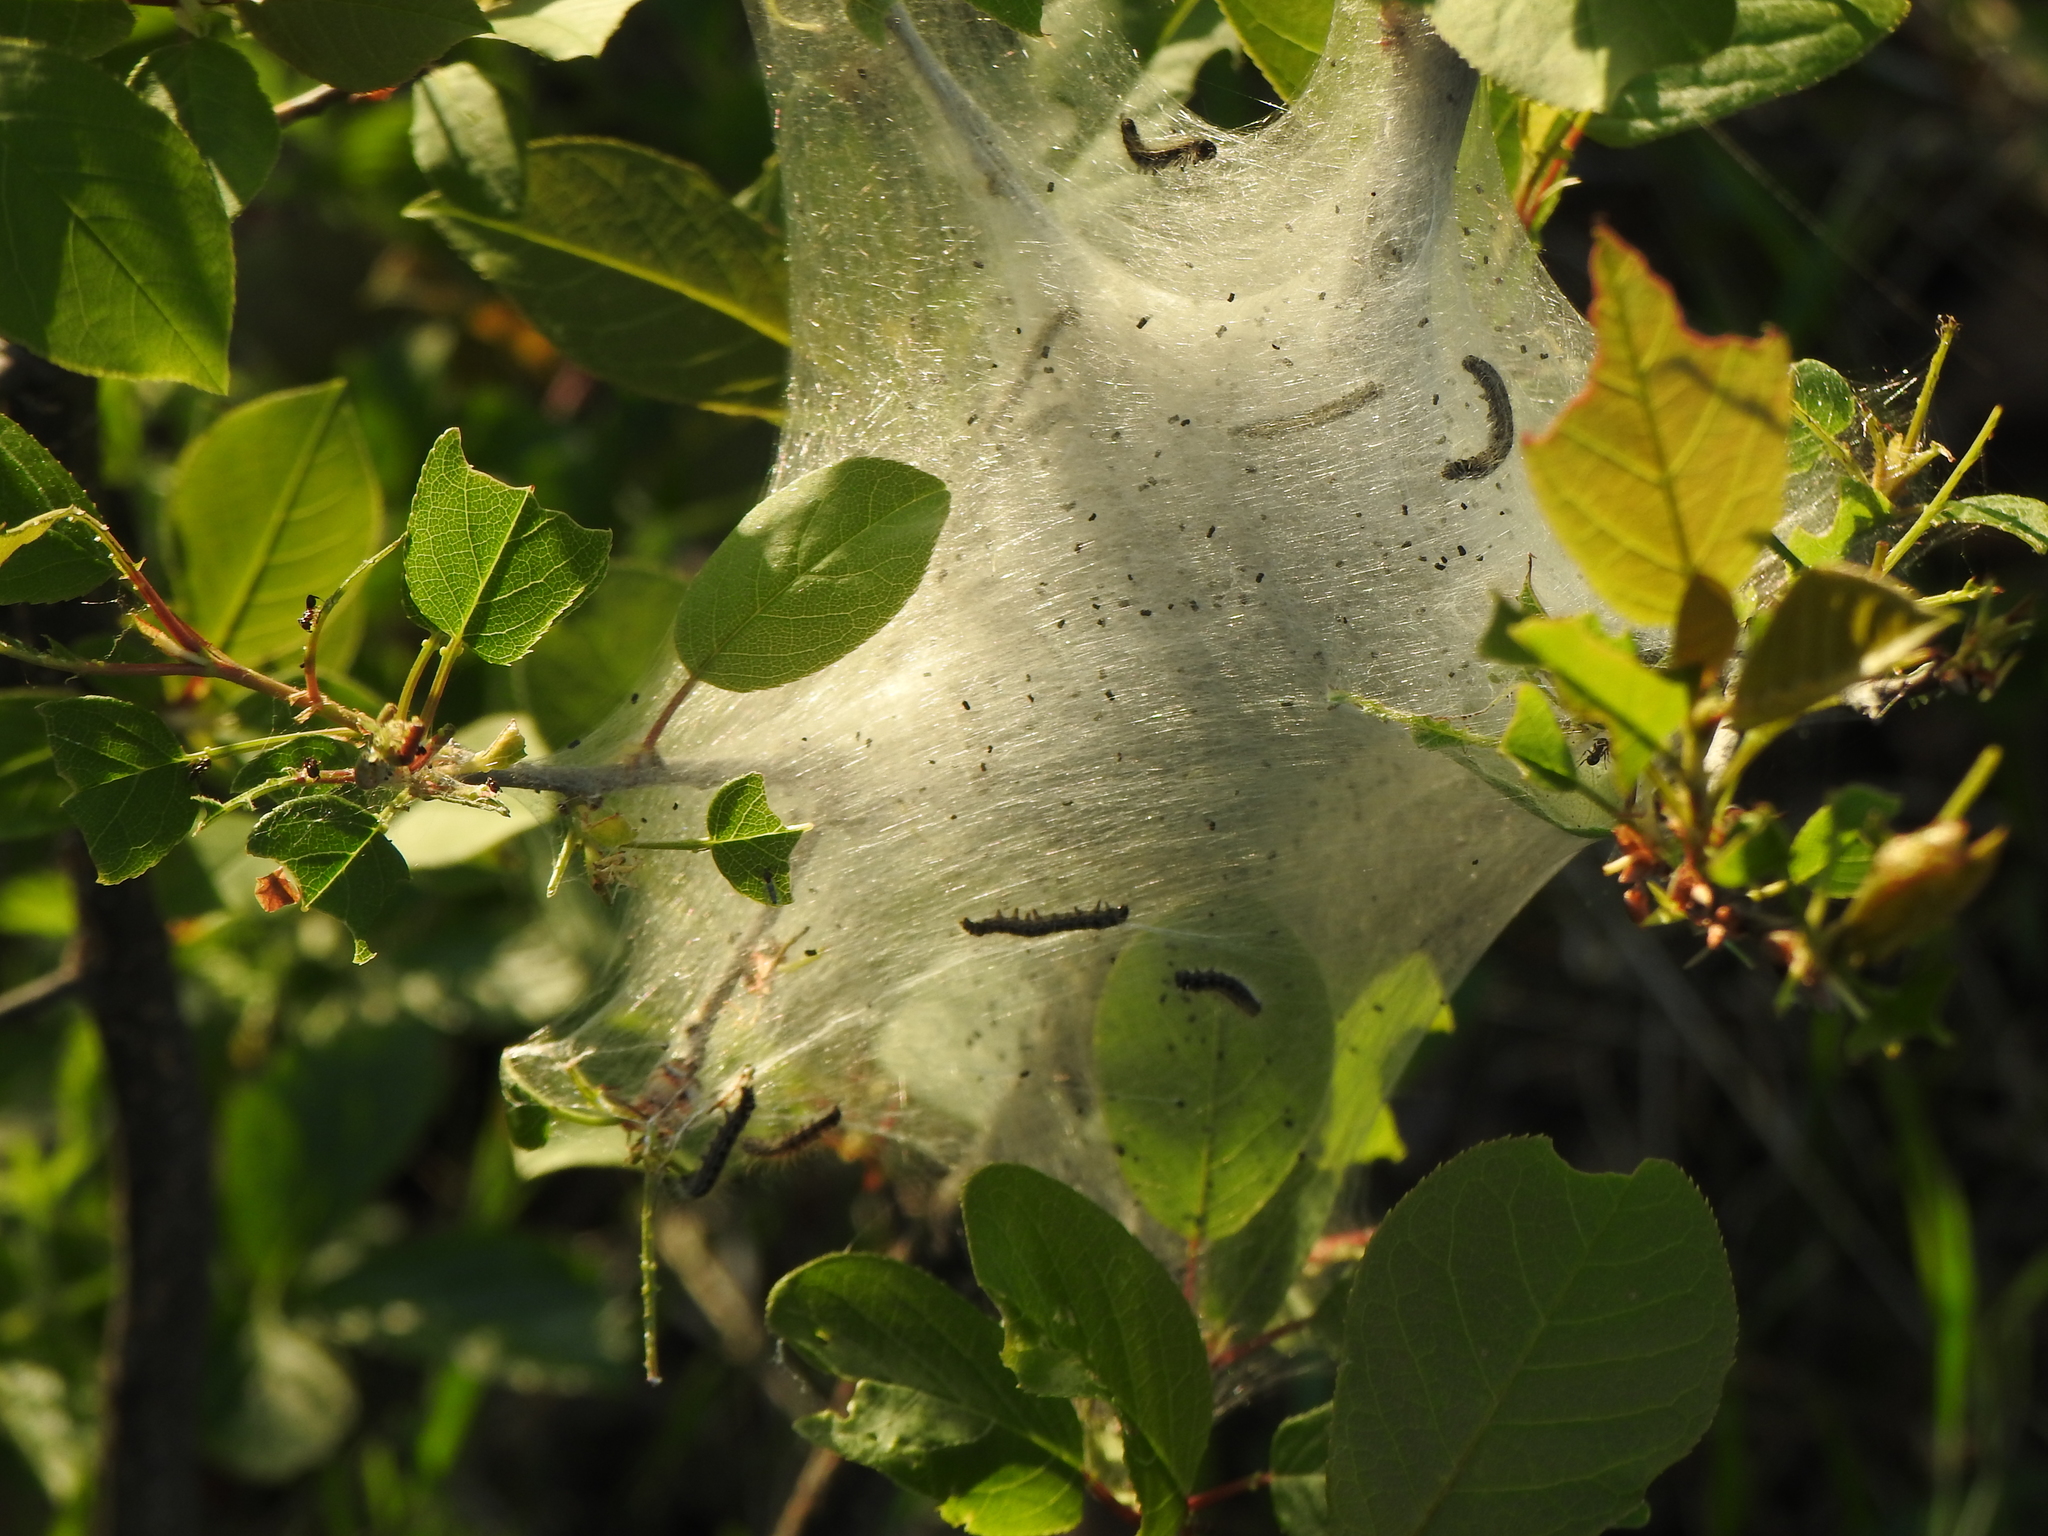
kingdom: Animalia
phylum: Arthropoda
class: Insecta
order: Lepidoptera
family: Lasiocampidae
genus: Malacosoma
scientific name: Malacosoma americana
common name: Eastern tent caterpillar moth
